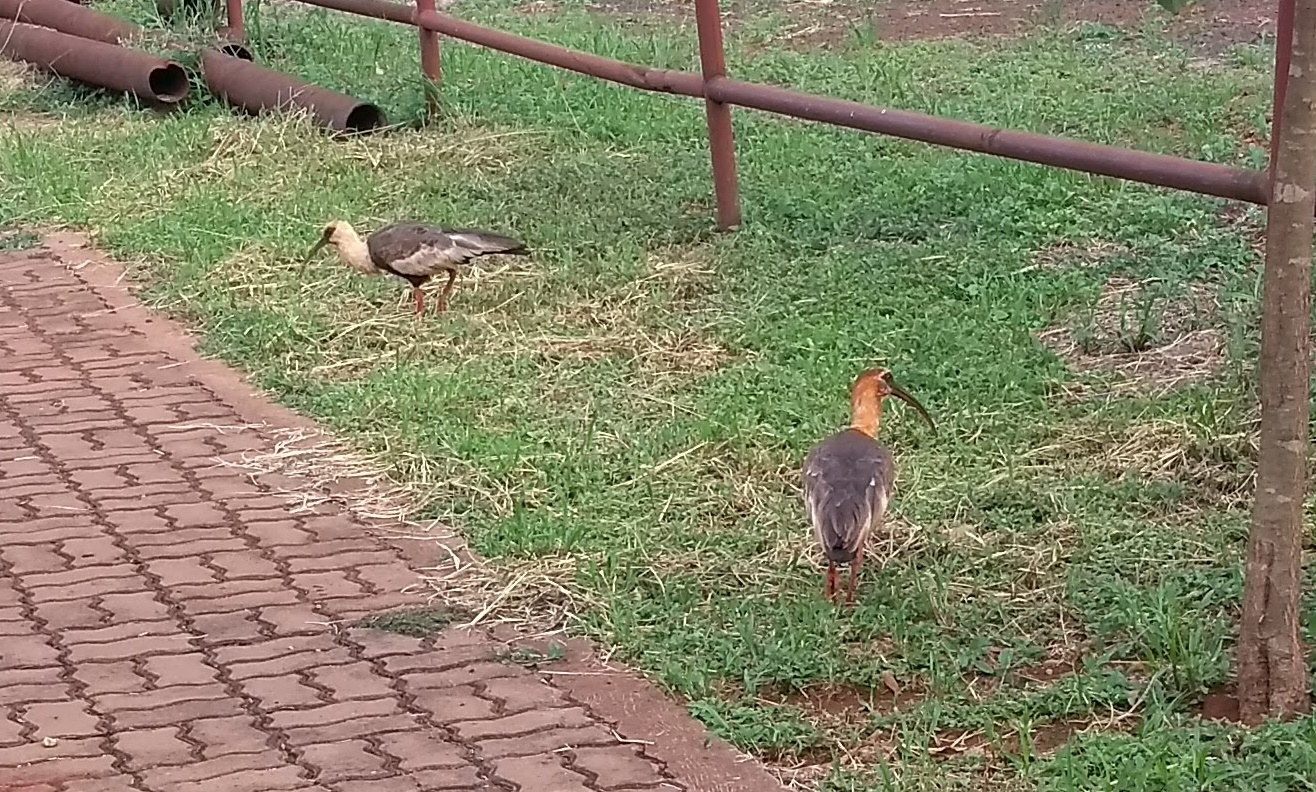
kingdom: Animalia
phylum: Chordata
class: Aves
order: Pelecaniformes
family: Threskiornithidae
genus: Theristicus
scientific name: Theristicus caudatus
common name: Buff-necked ibis
